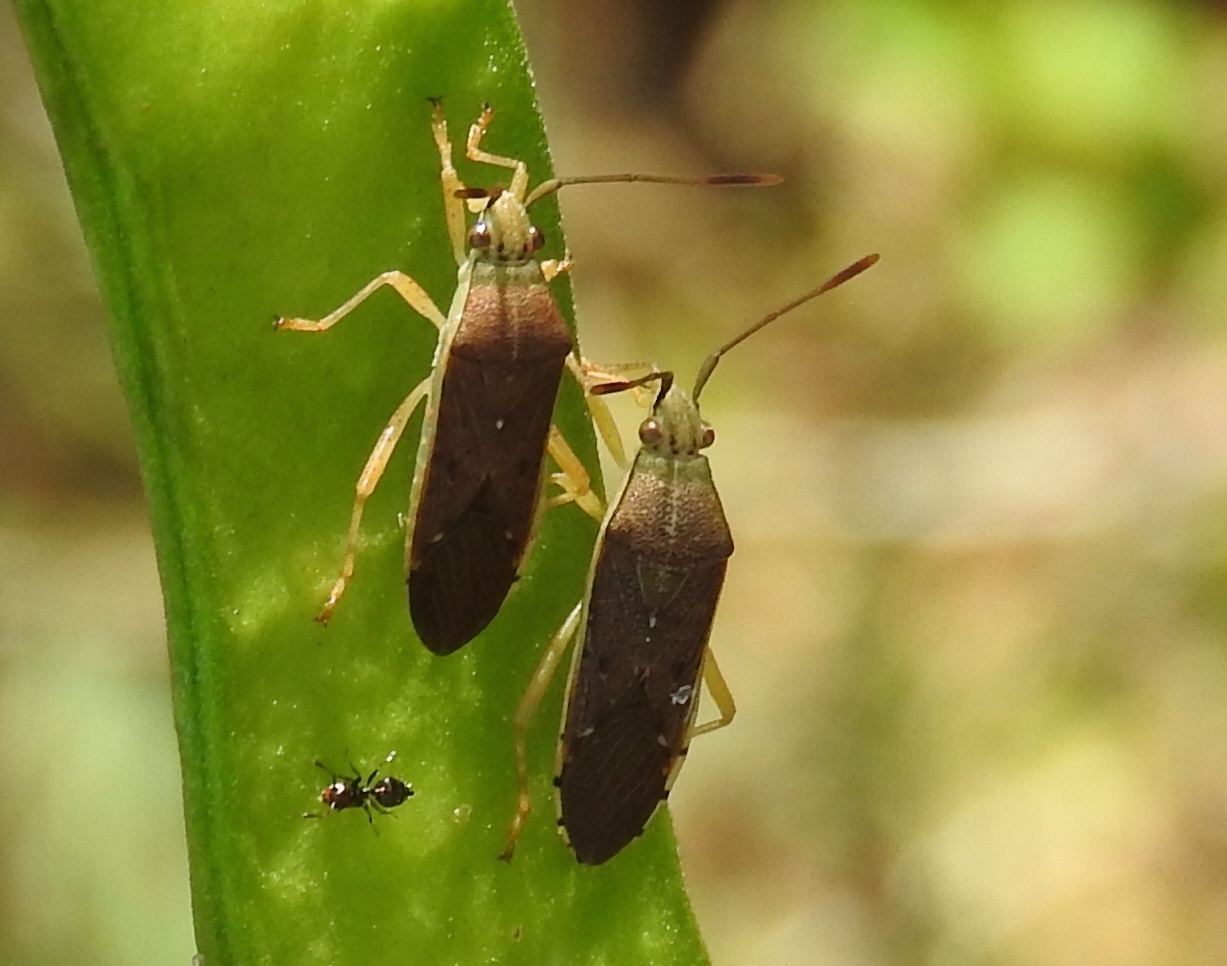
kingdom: Animalia
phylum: Arthropoda
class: Insecta
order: Hemiptera
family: Coreidae
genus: Catorhintha
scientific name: Catorhintha divergens
